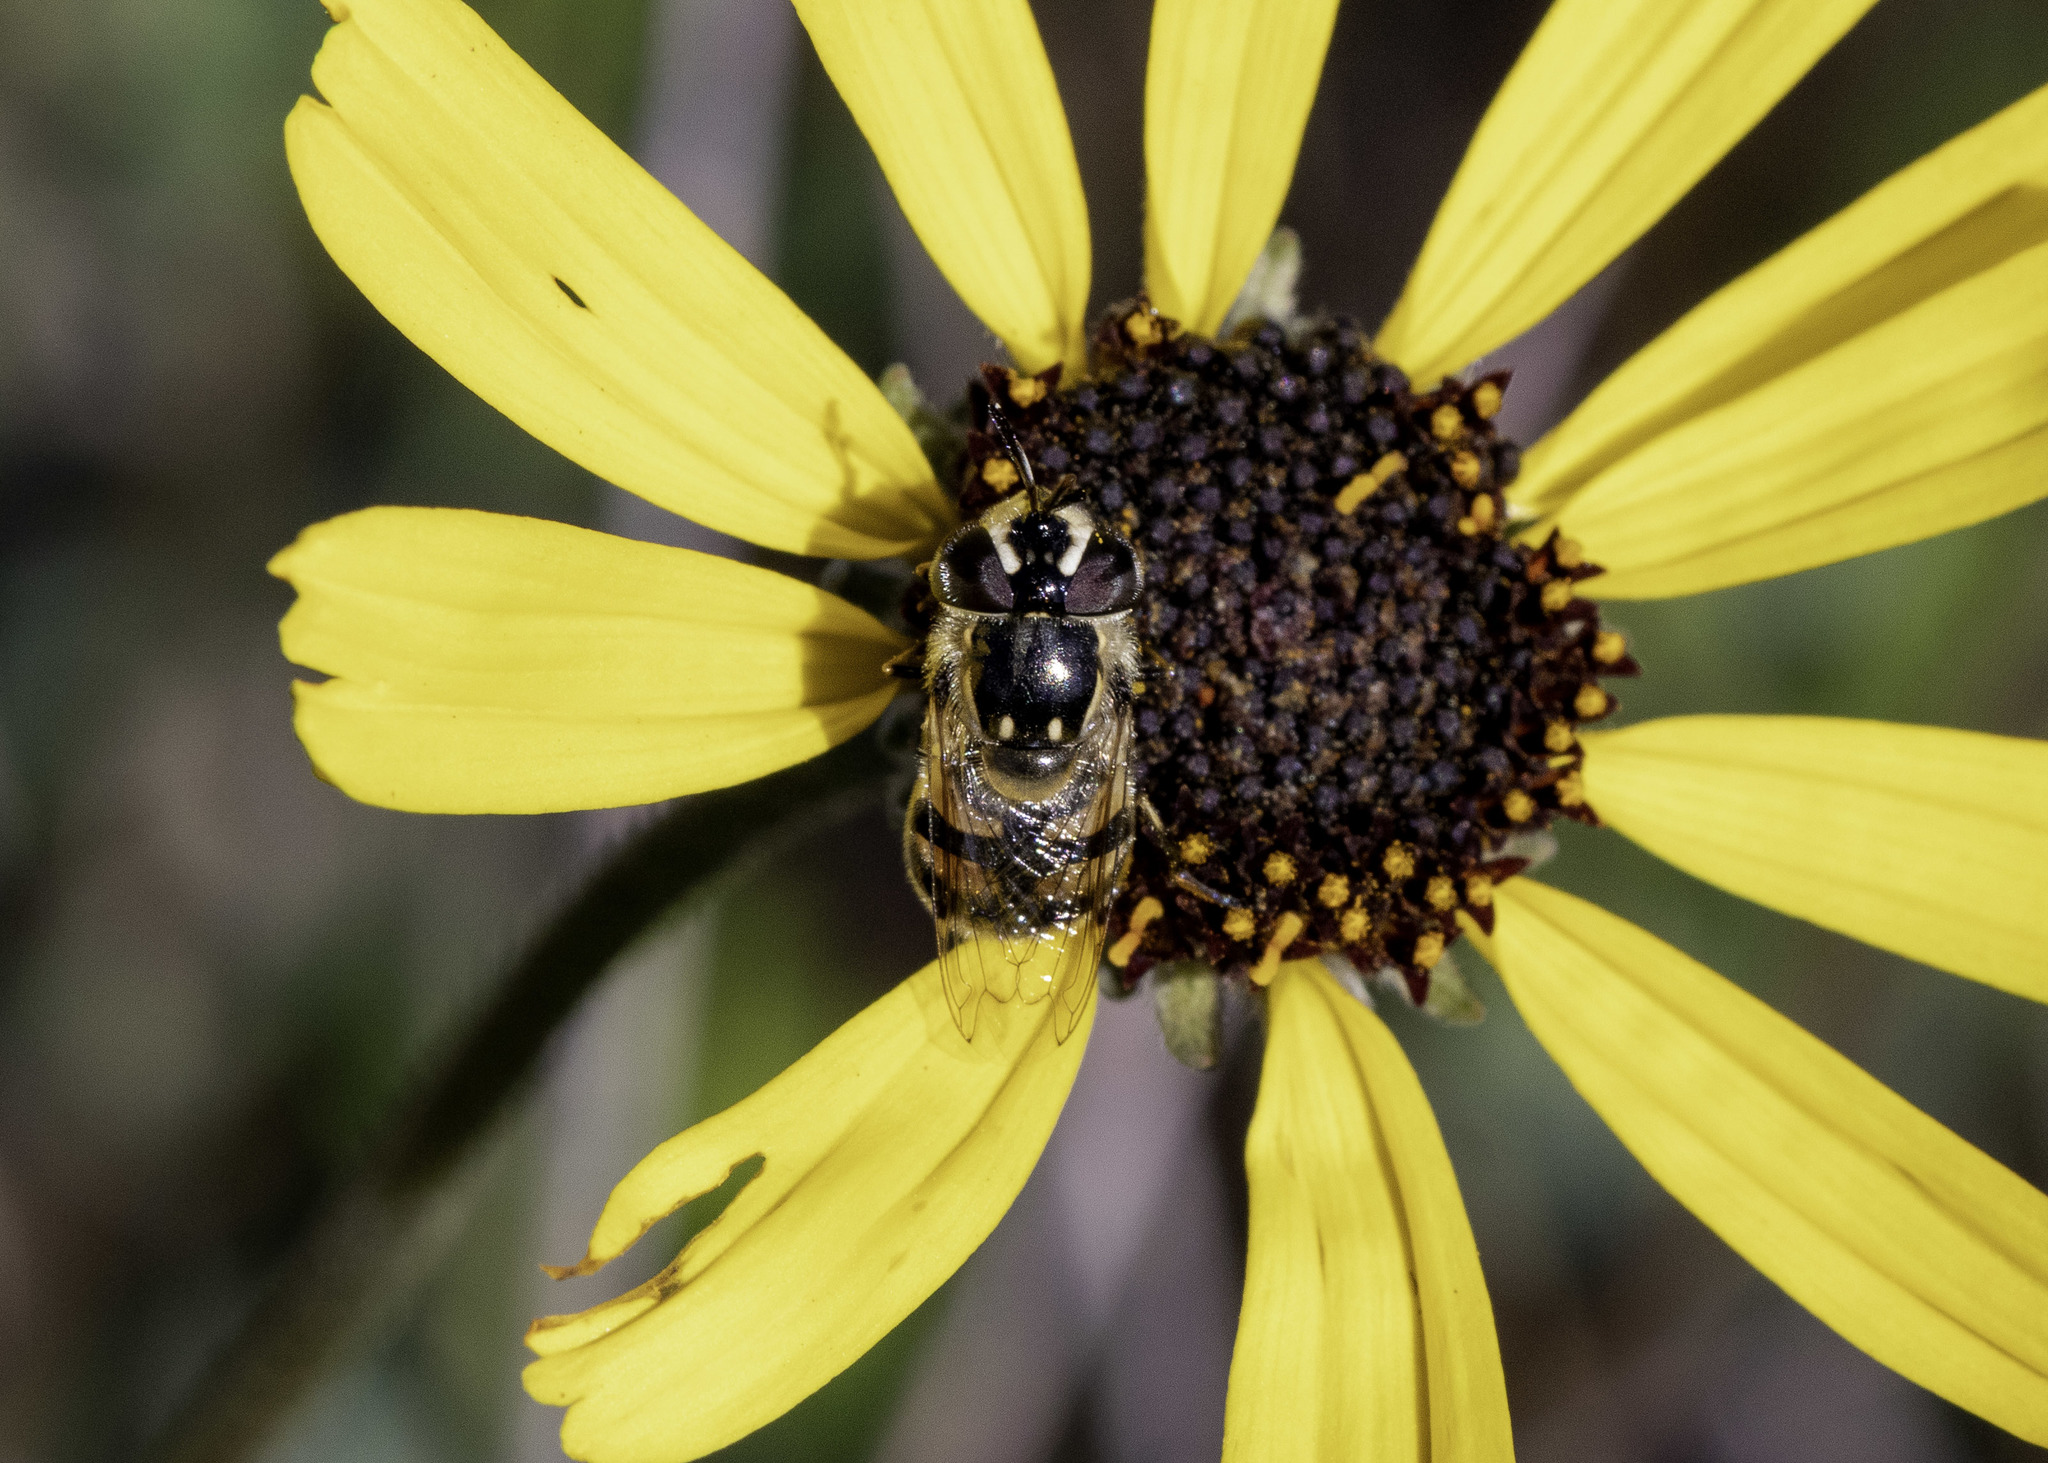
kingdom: Animalia
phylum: Arthropoda
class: Insecta
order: Diptera
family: Syrphidae
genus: Copestylum
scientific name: Copestylum marginatum
